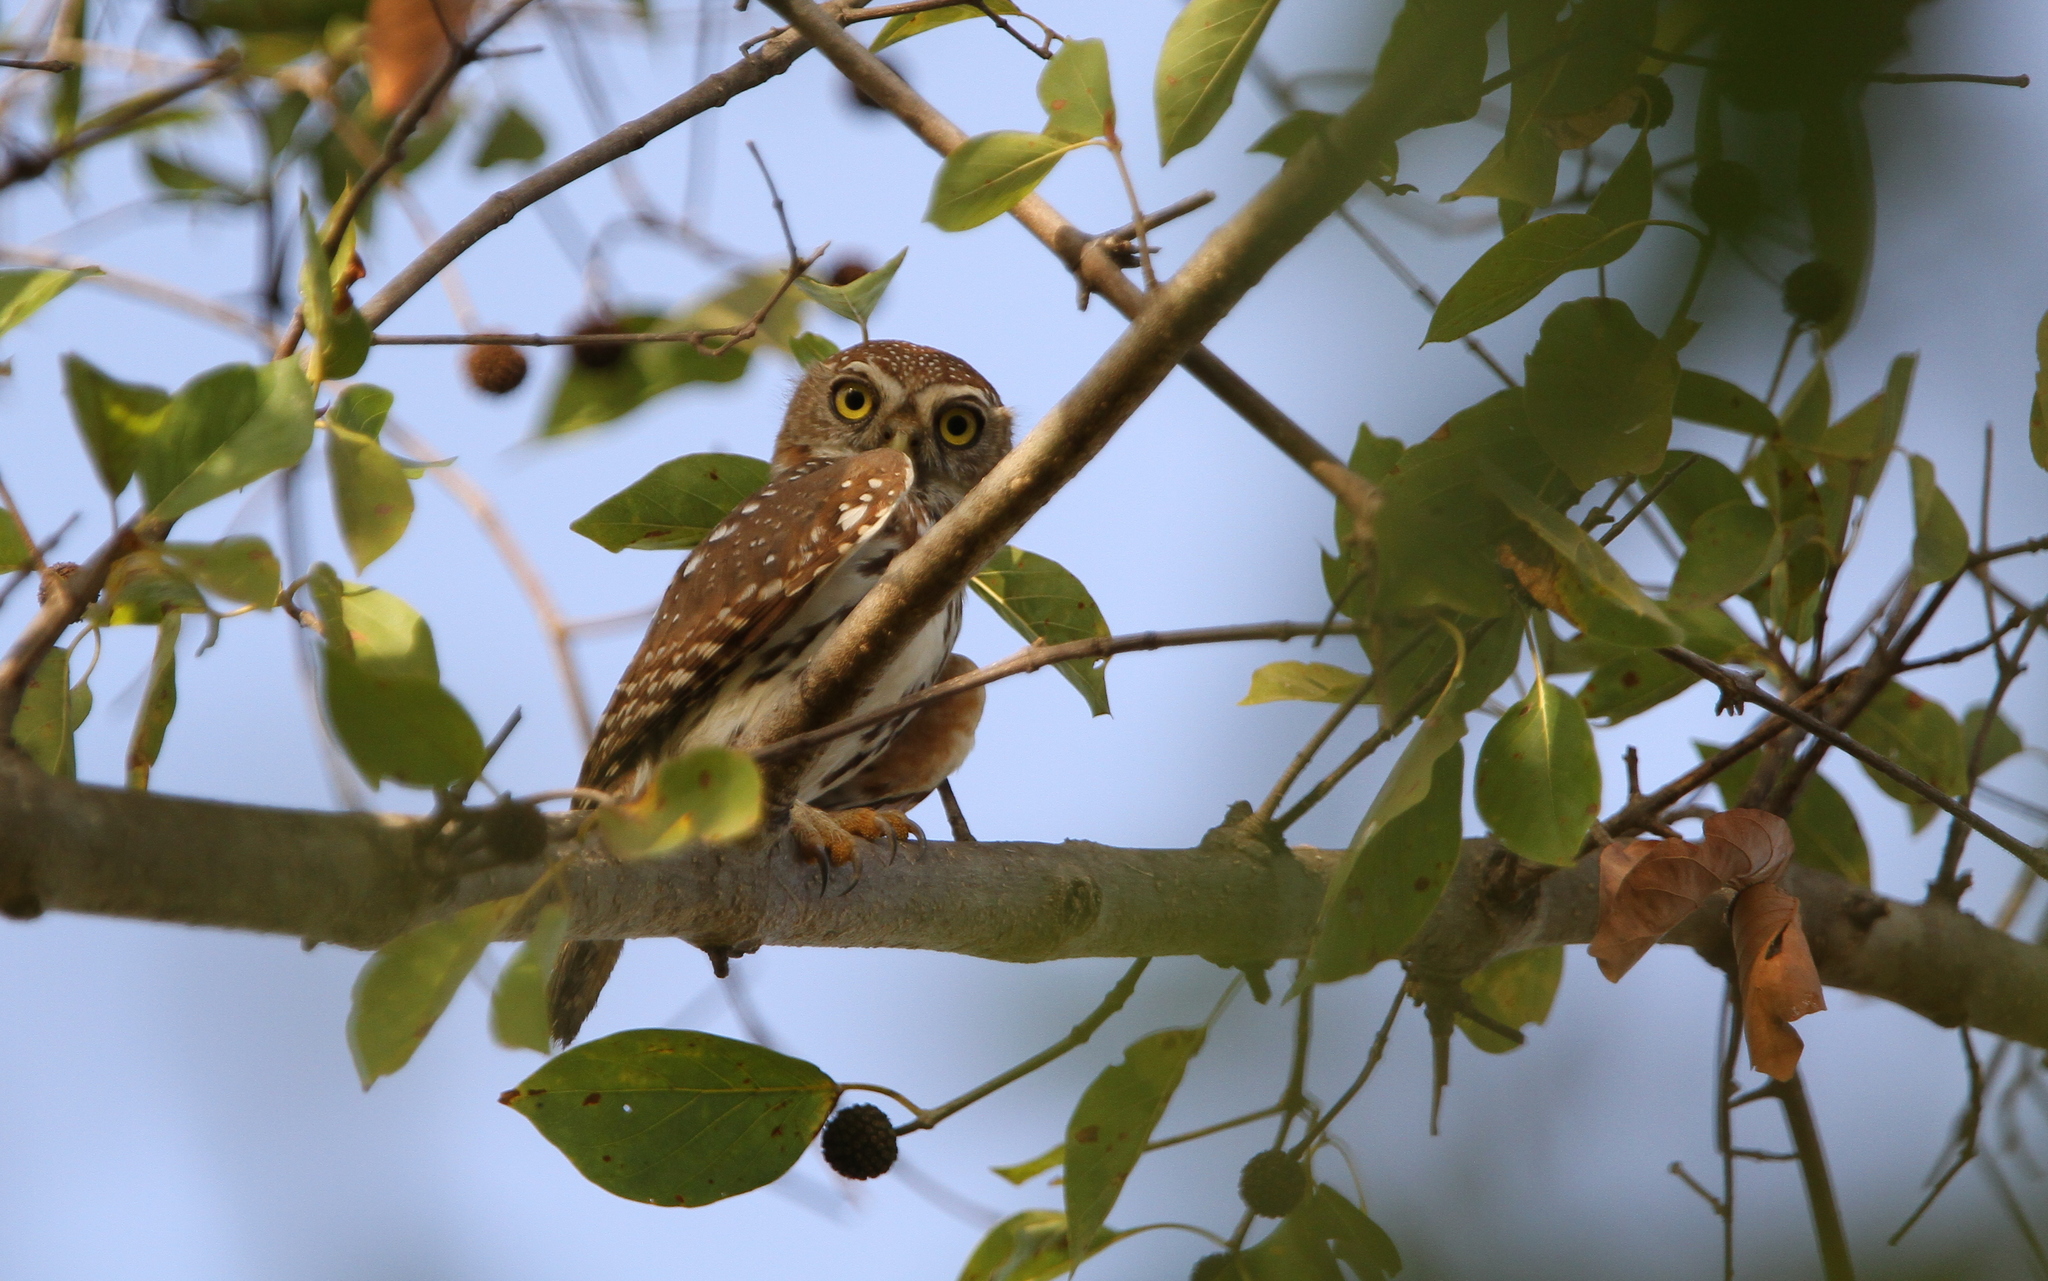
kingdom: Animalia
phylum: Chordata
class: Aves
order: Strigiformes
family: Strigidae
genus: Glaucidium
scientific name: Glaucidium perlatum
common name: Pearl-spotted owlet
